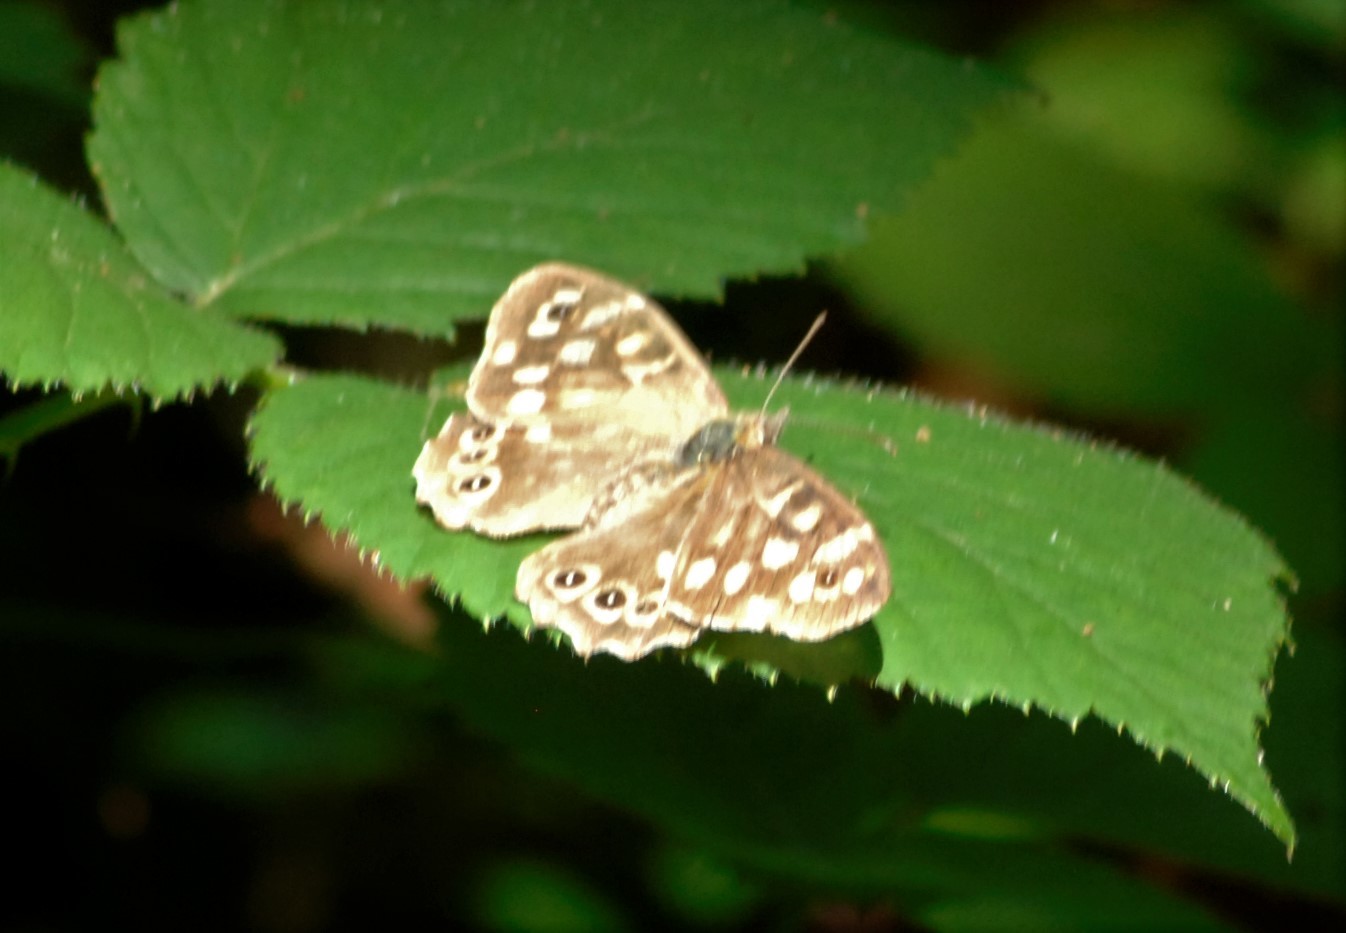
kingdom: Animalia
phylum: Arthropoda
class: Insecta
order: Lepidoptera
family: Nymphalidae
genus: Pararge
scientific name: Pararge aegeria
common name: Speckled wood
